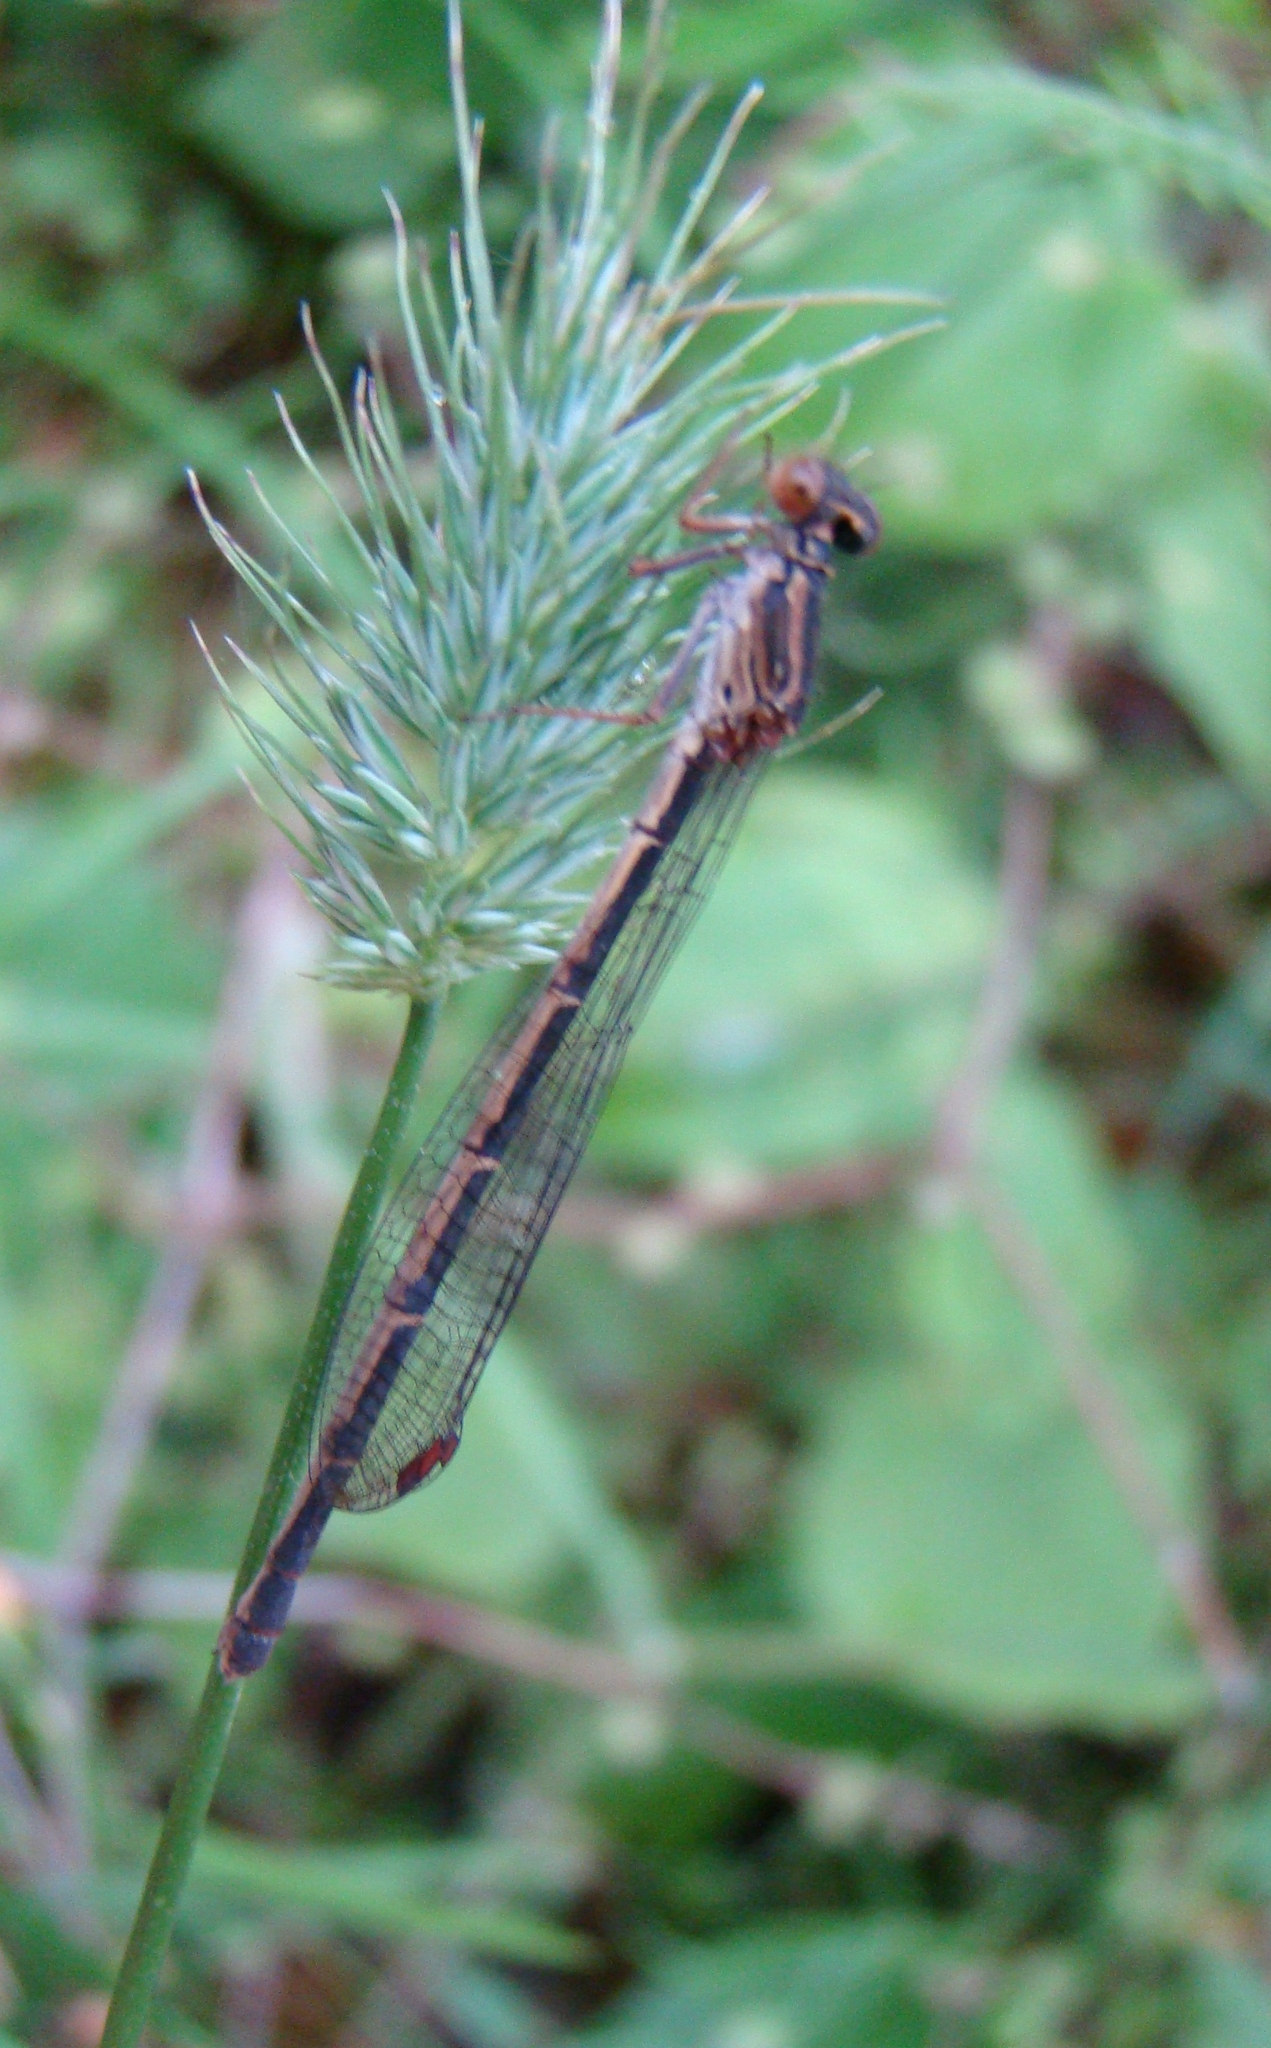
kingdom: Animalia
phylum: Arthropoda
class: Insecta
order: Odonata
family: Coenagrionidae
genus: Xanthocnemis
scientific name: Xanthocnemis zealandica
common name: Common redcoat damselfly
